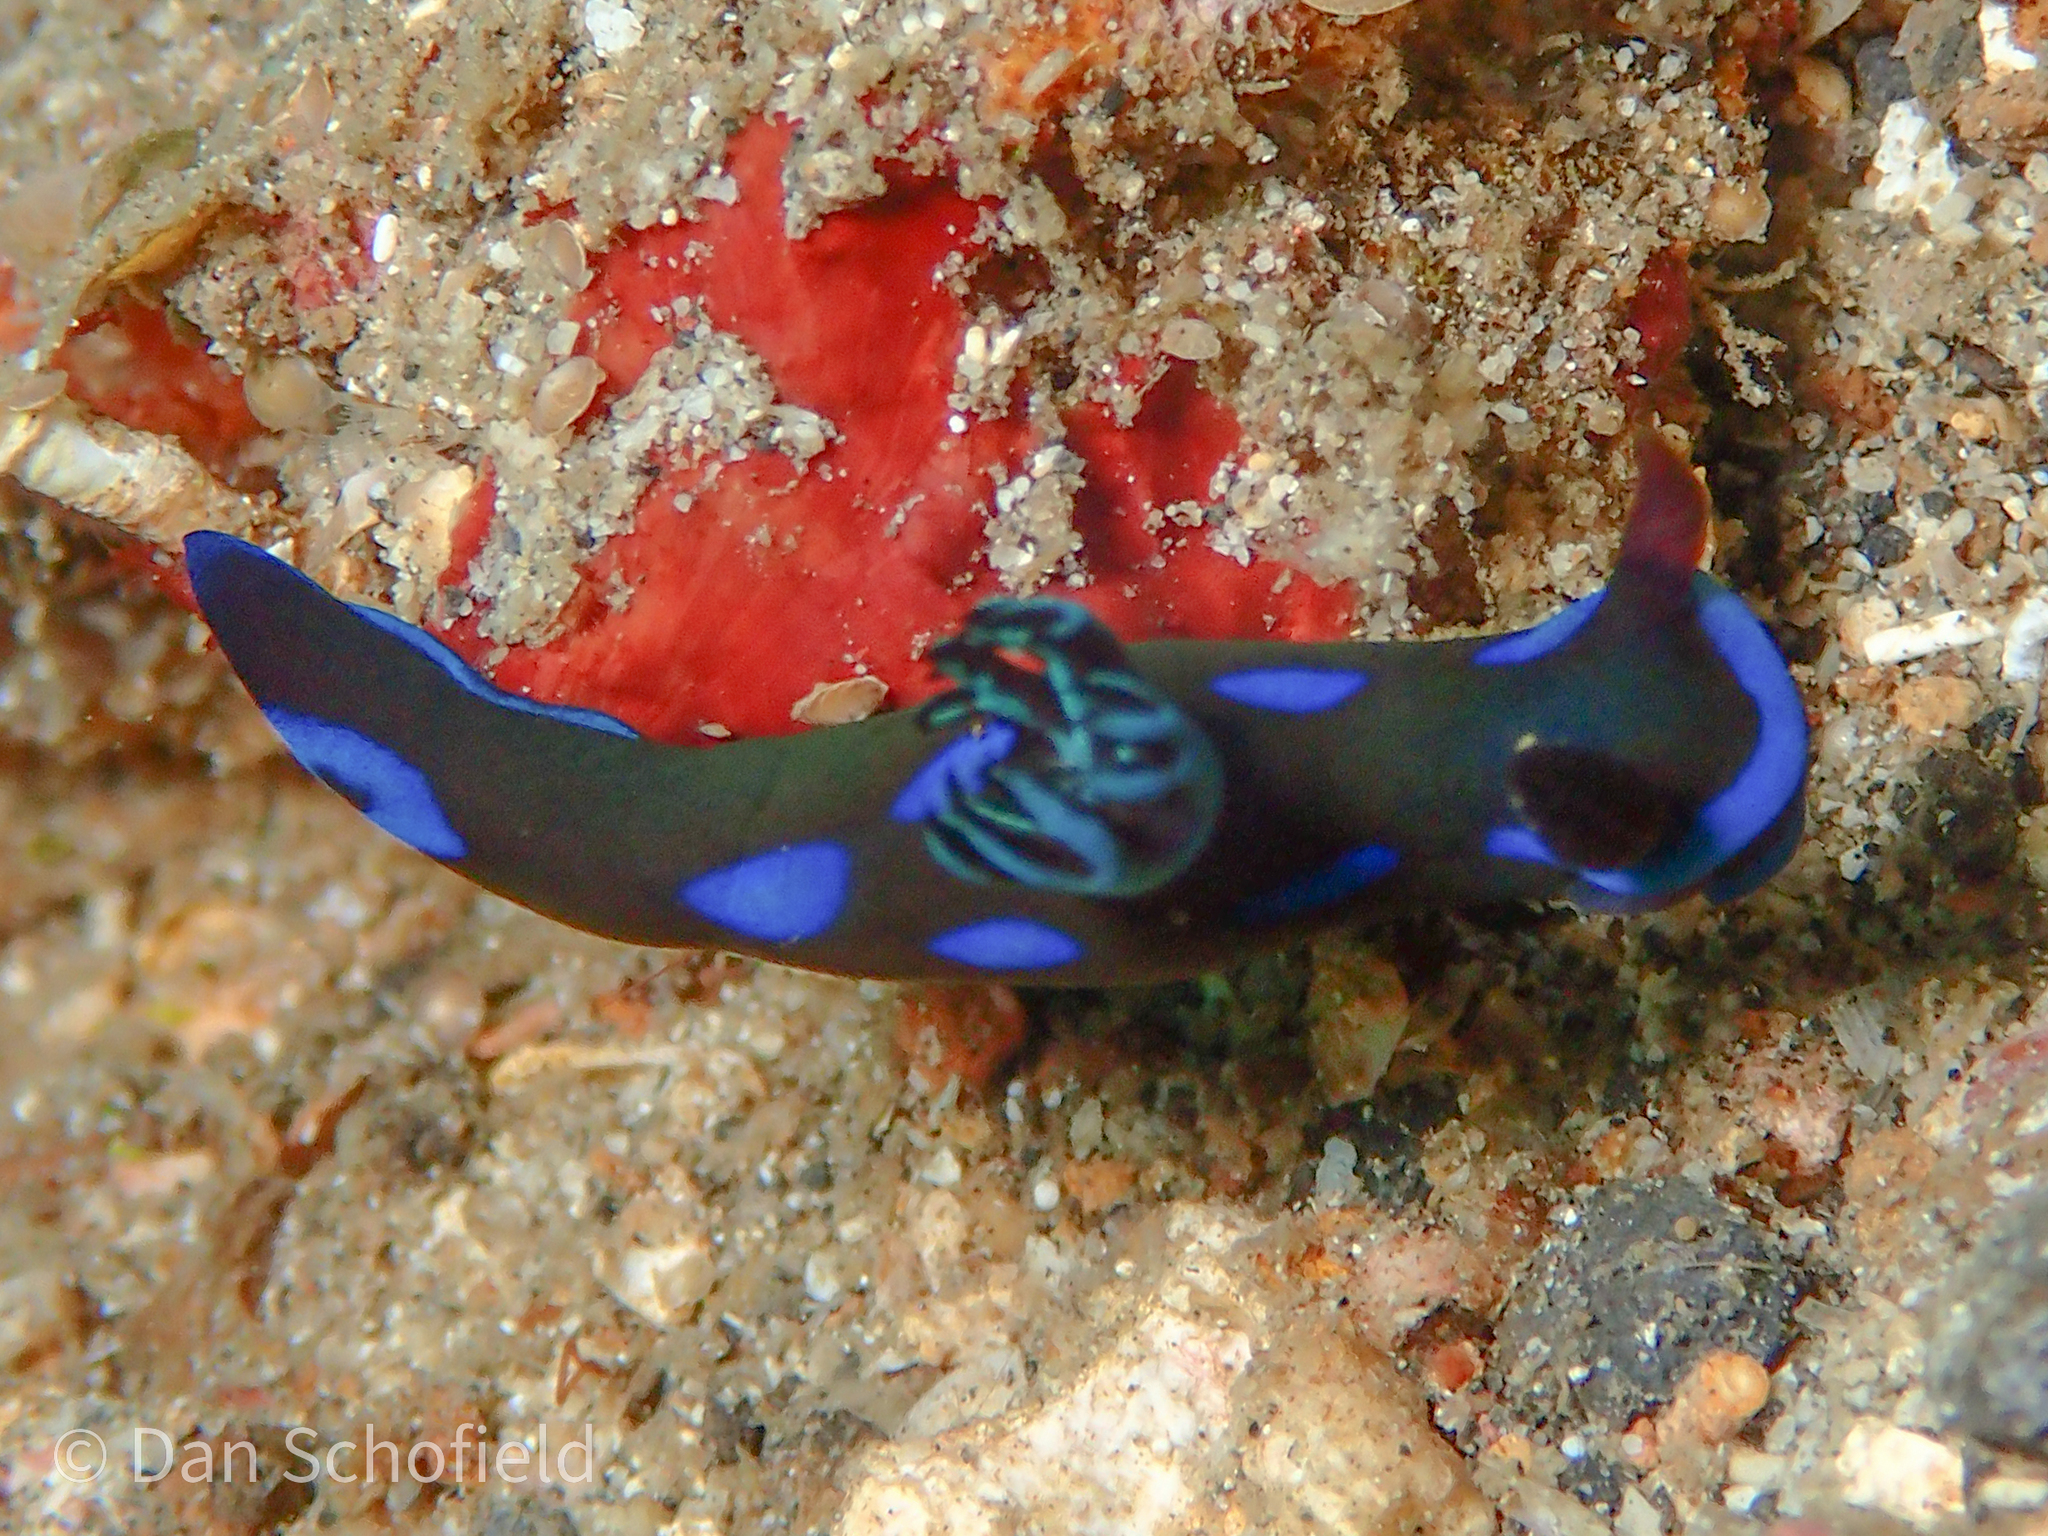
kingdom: Animalia
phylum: Mollusca
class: Gastropoda
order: Nudibranchia
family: Polyceridae
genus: Tambja
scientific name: Tambja morosa
